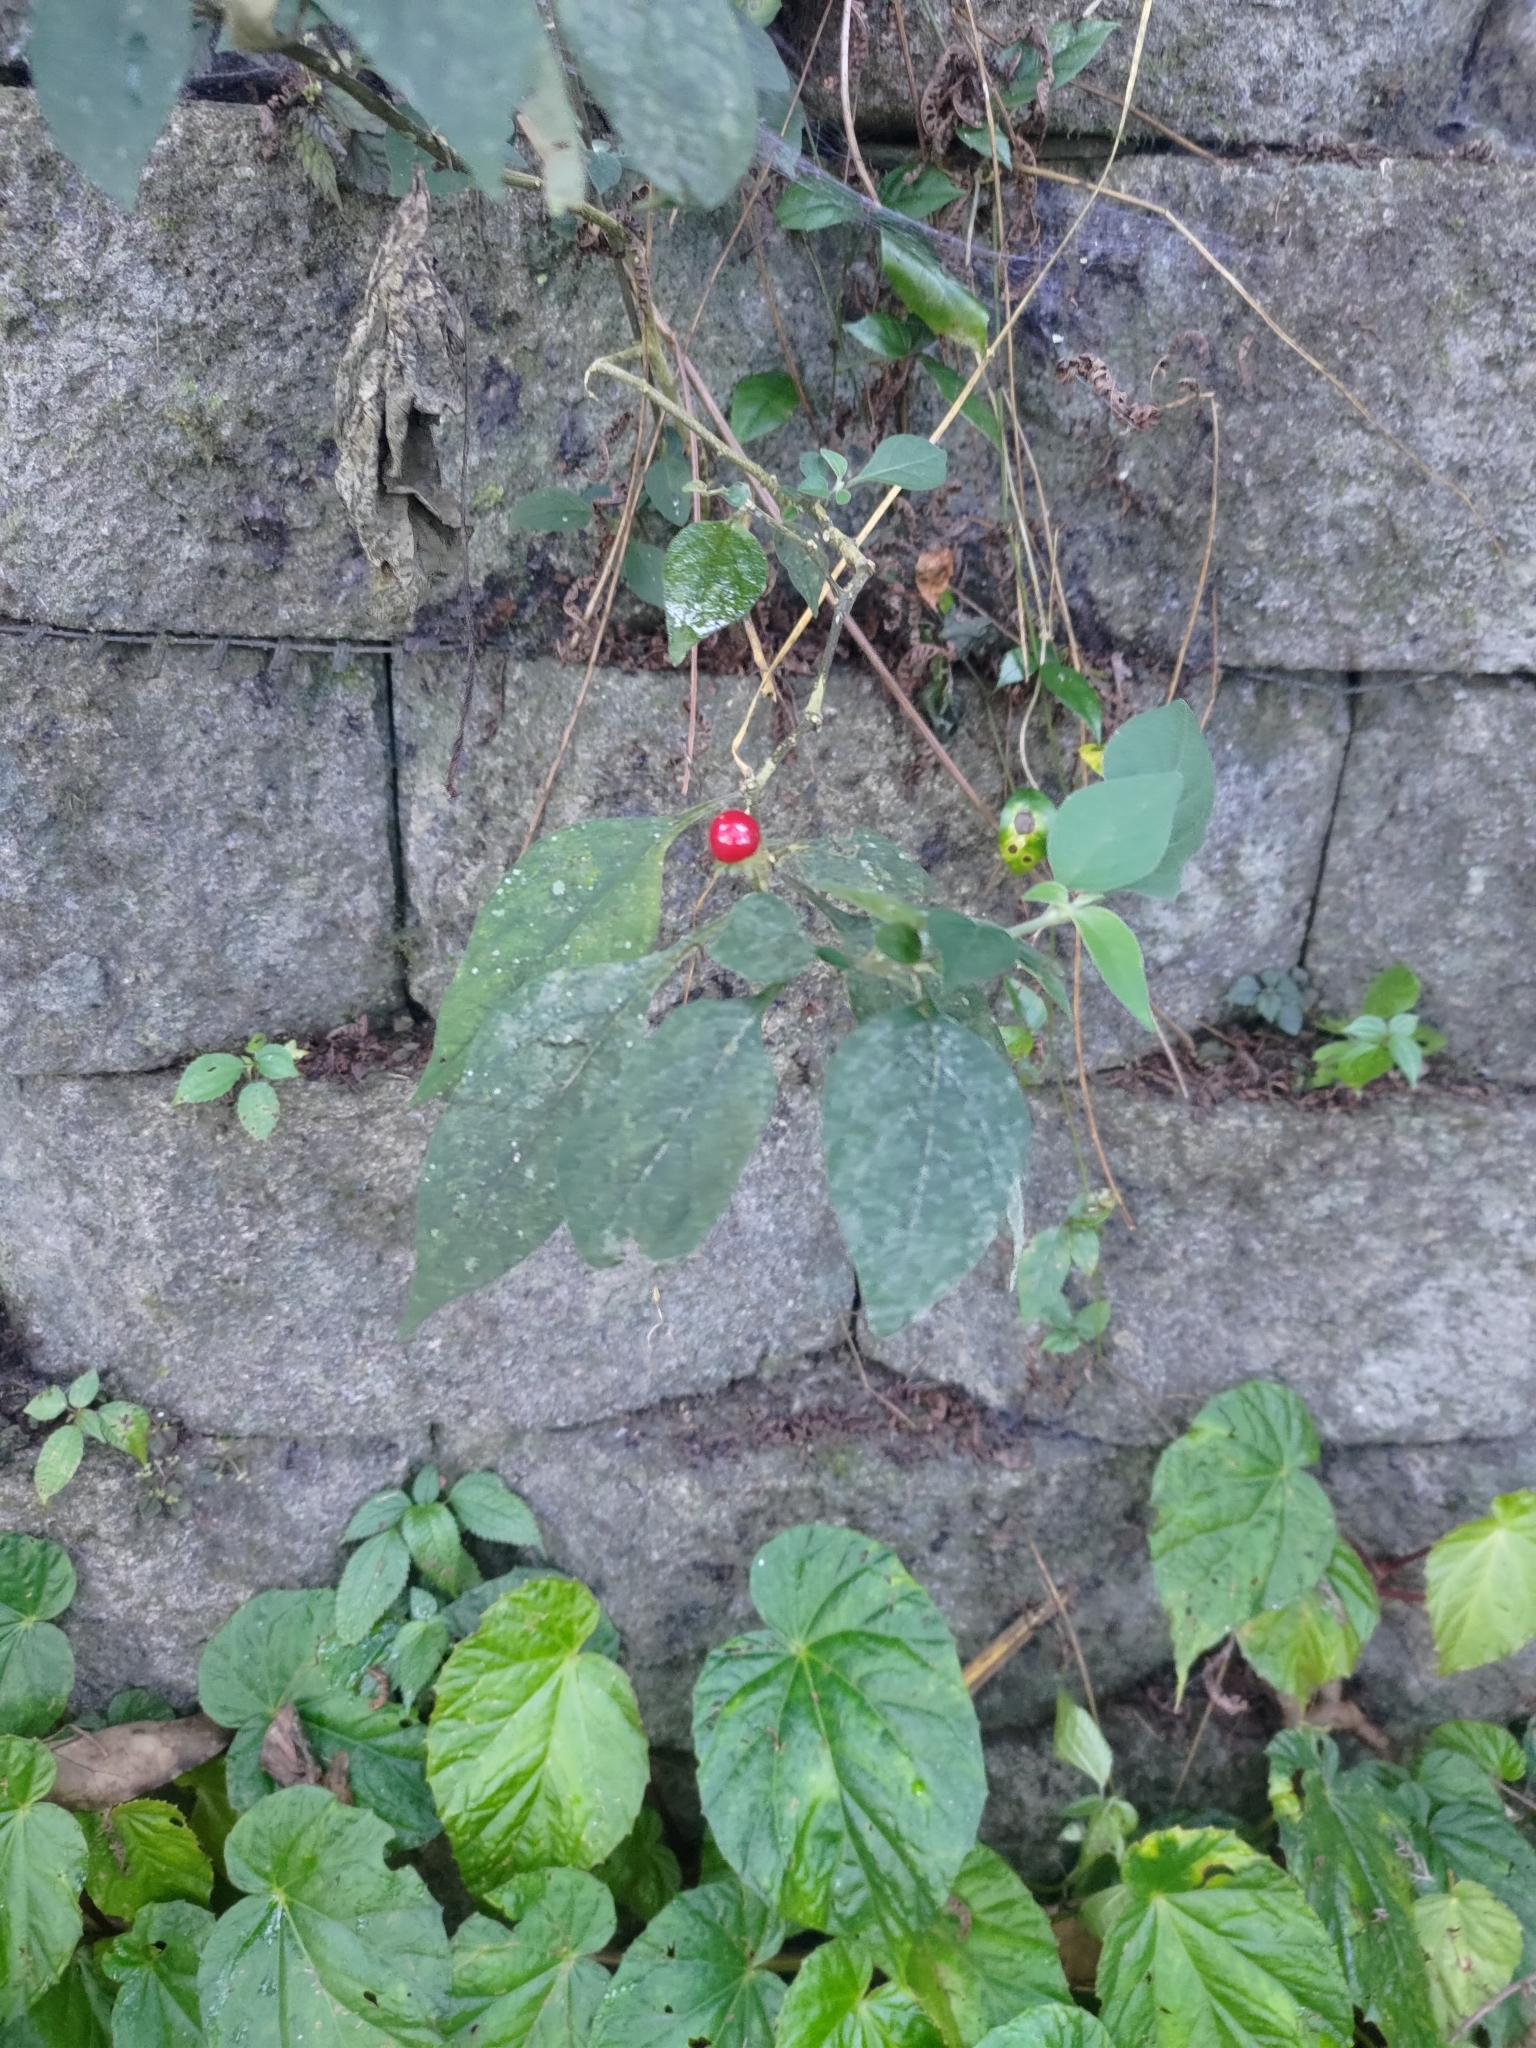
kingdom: Plantae
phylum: Tracheophyta
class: Magnoliopsida
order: Solanales
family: Solanaceae
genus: Lycianthes
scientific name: Lycianthes biflora
